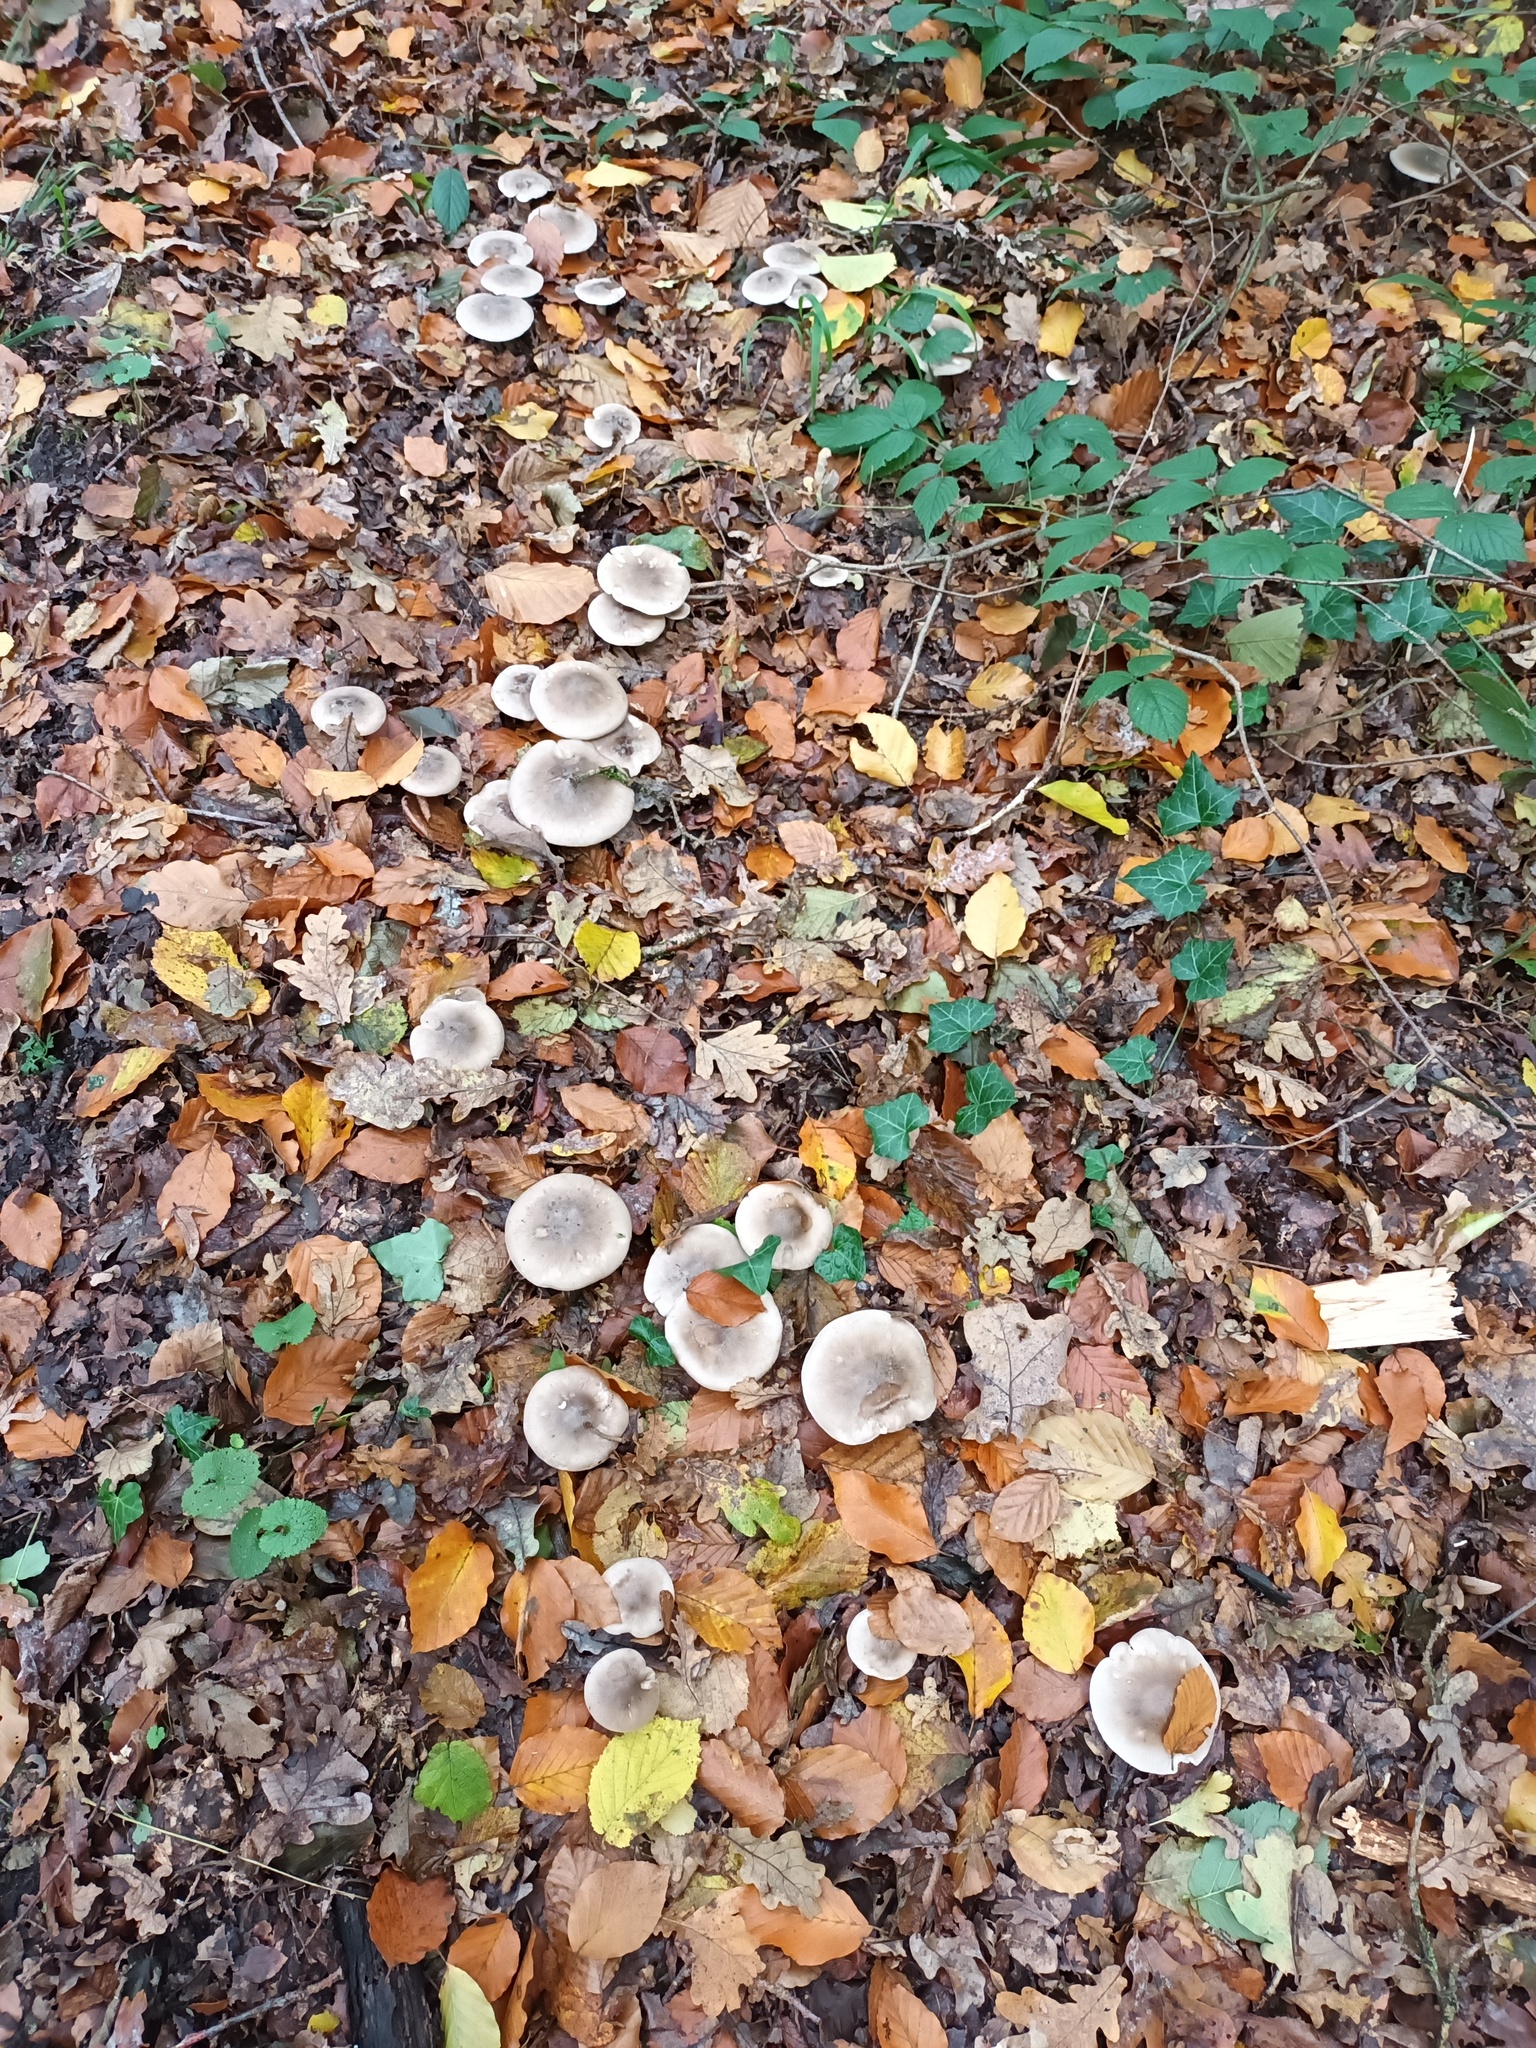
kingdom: Fungi
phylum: Basidiomycota
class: Agaricomycetes
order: Agaricales
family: Tricholomataceae
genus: Clitocybe
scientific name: Clitocybe nebularis
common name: Clouded agaric
